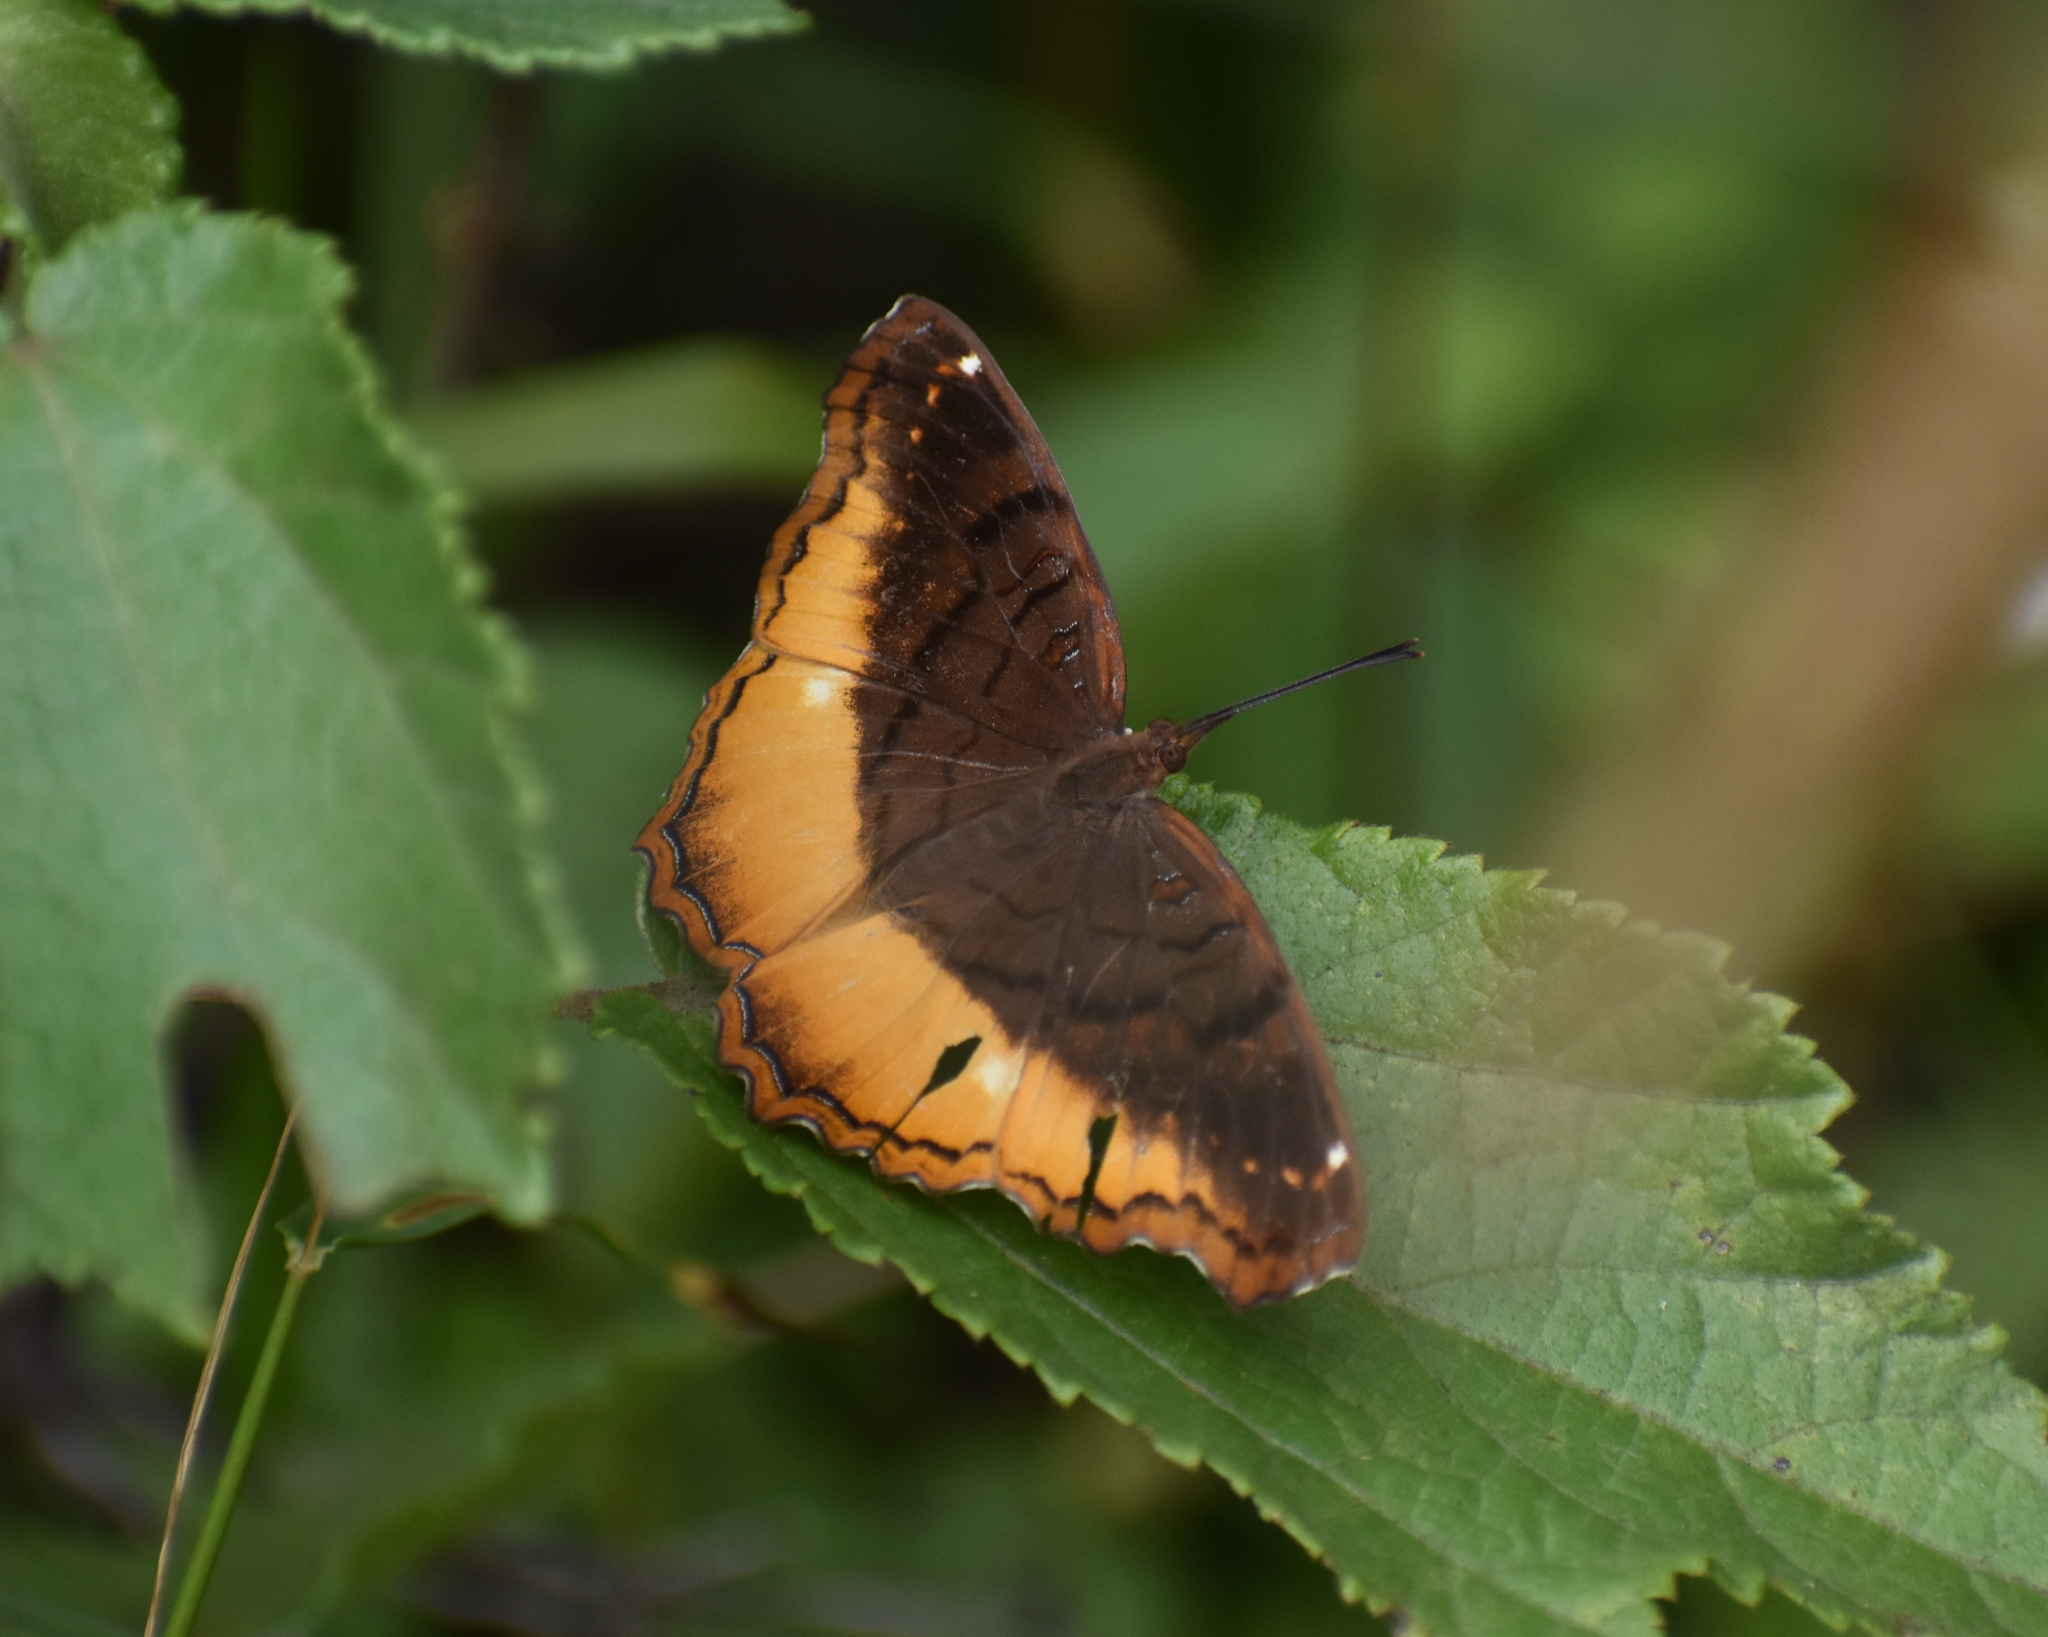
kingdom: Animalia
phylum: Arthropoda
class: Insecta
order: Lepidoptera
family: Nymphalidae
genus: Eurytela
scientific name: Eurytela dryope
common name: Golden piper
